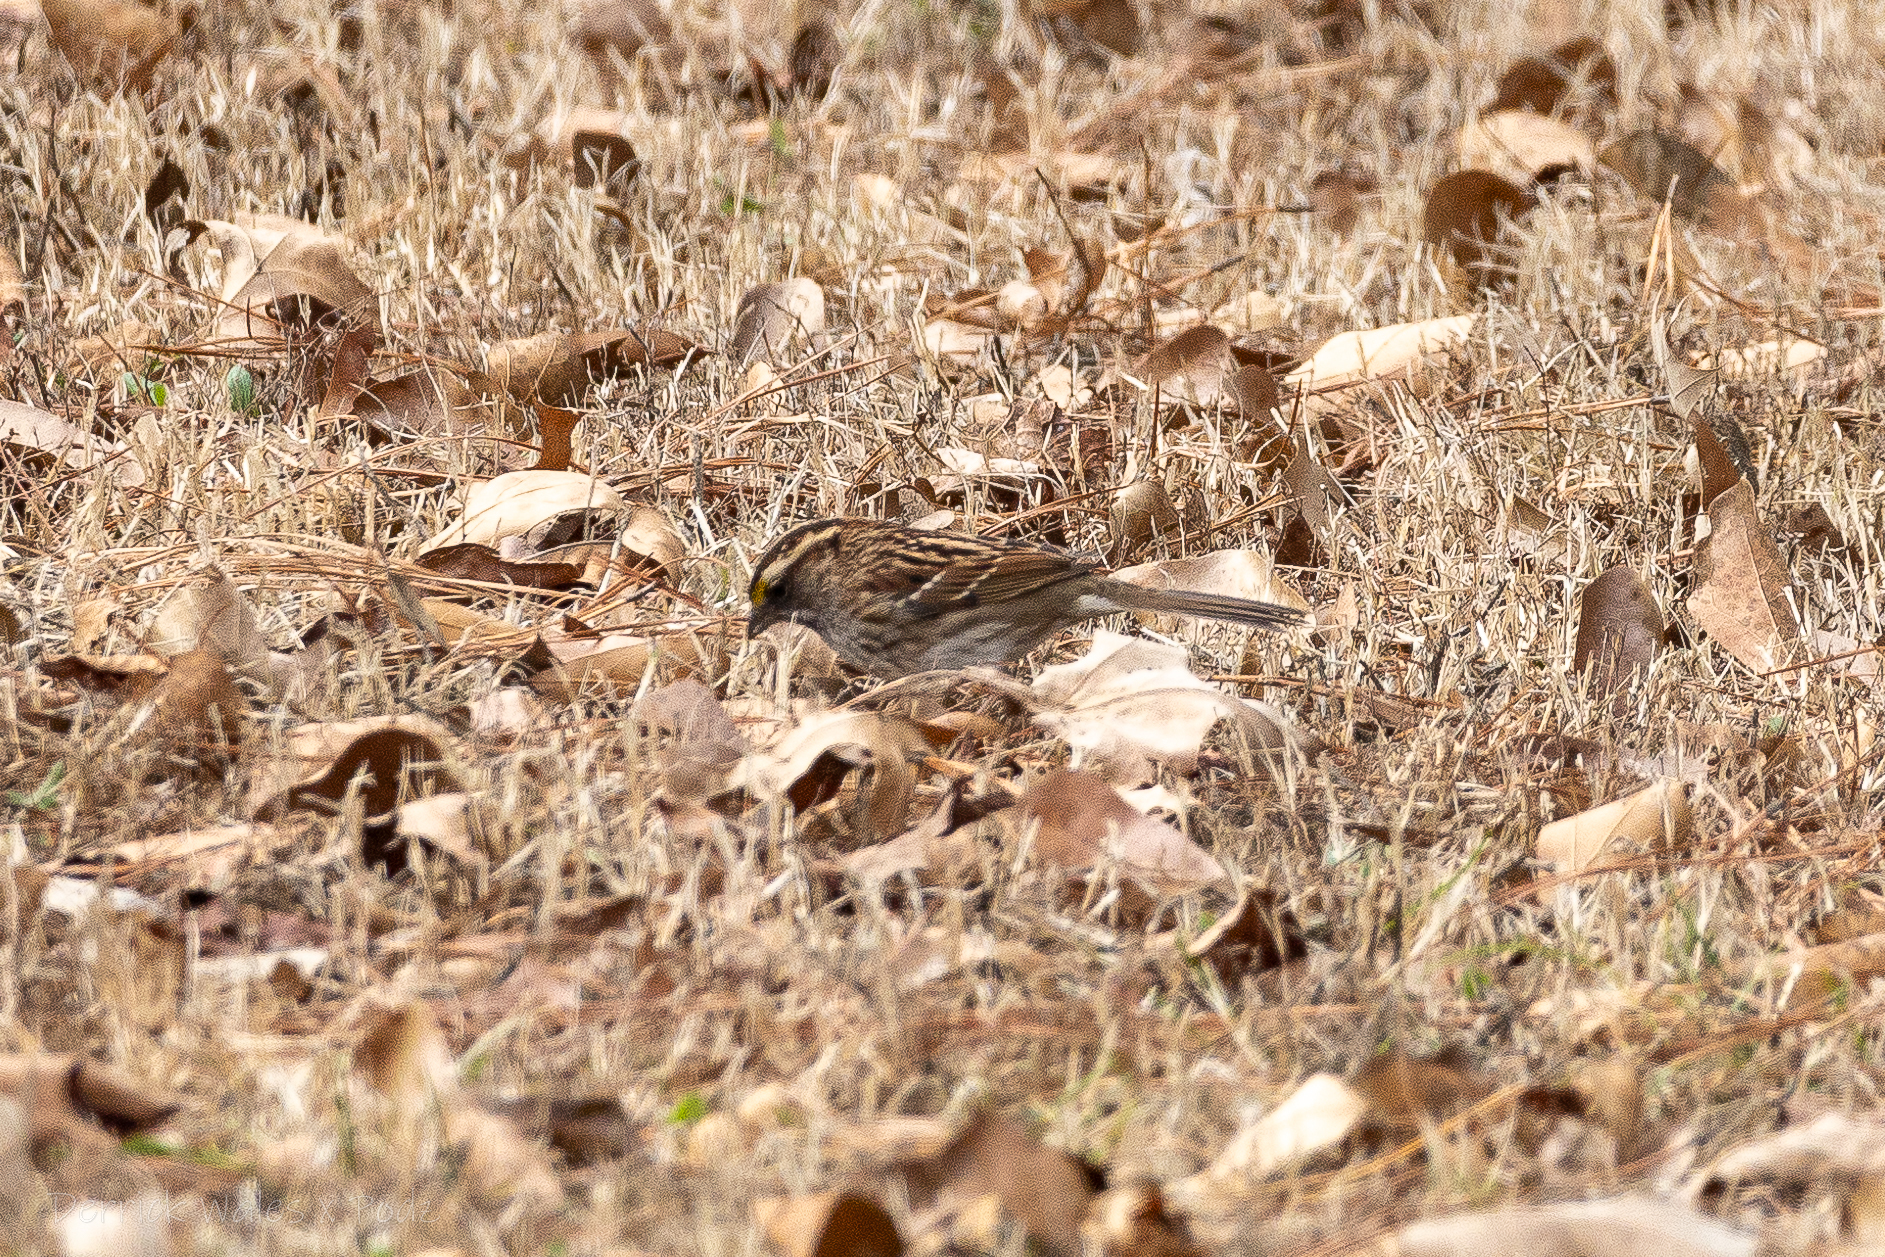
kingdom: Animalia
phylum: Chordata
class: Aves
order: Passeriformes
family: Passerellidae
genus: Zonotrichia
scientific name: Zonotrichia albicollis
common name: White-throated sparrow
